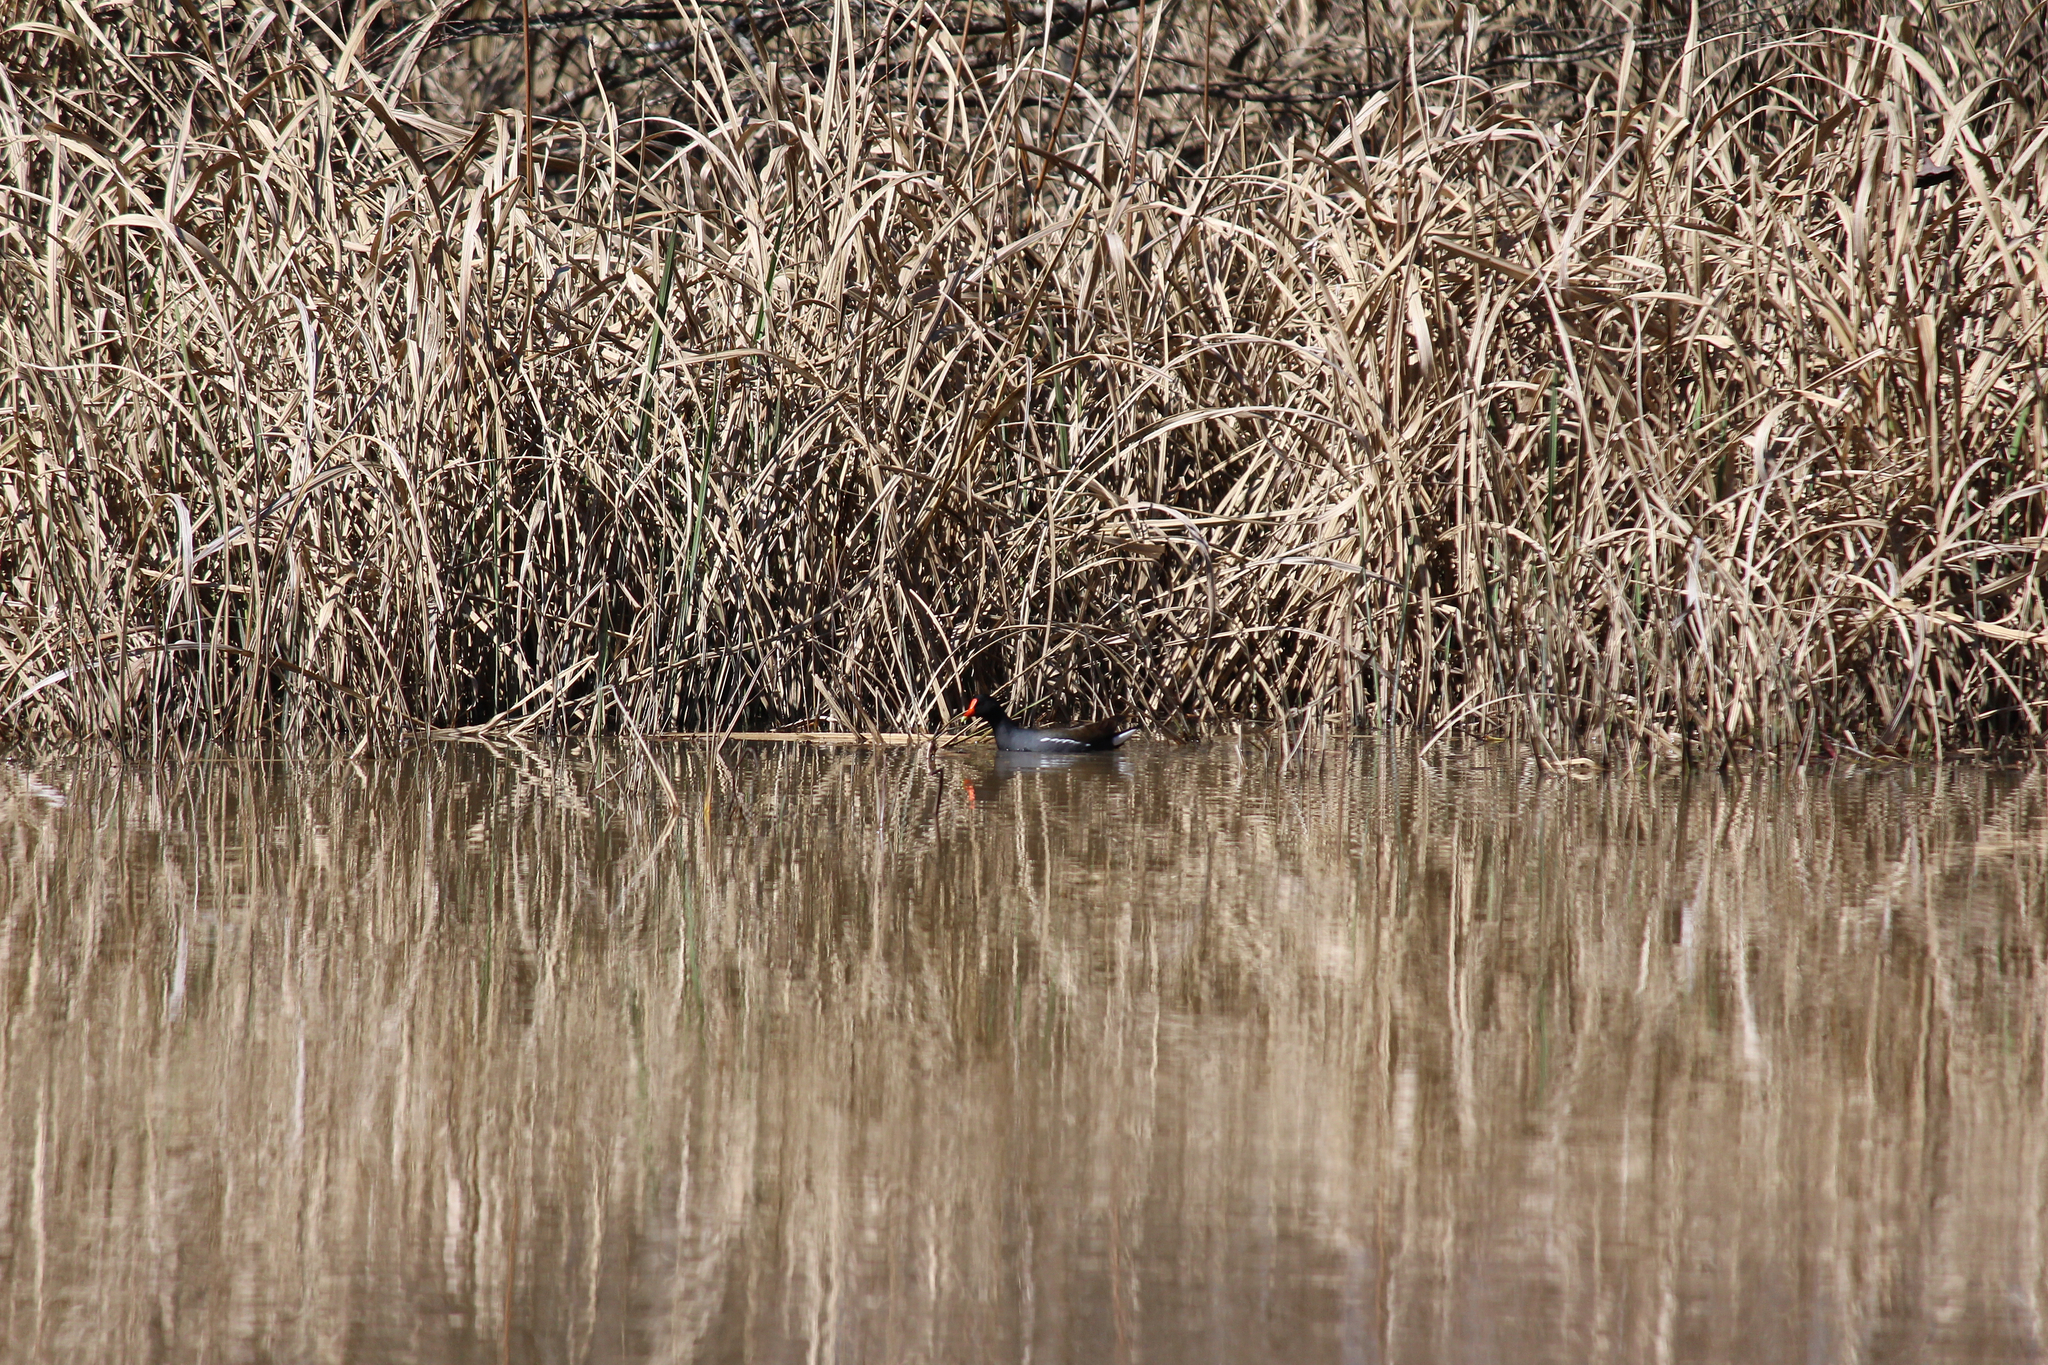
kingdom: Animalia
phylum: Chordata
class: Aves
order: Gruiformes
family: Rallidae
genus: Gallinula
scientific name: Gallinula chloropus
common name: Common moorhen
